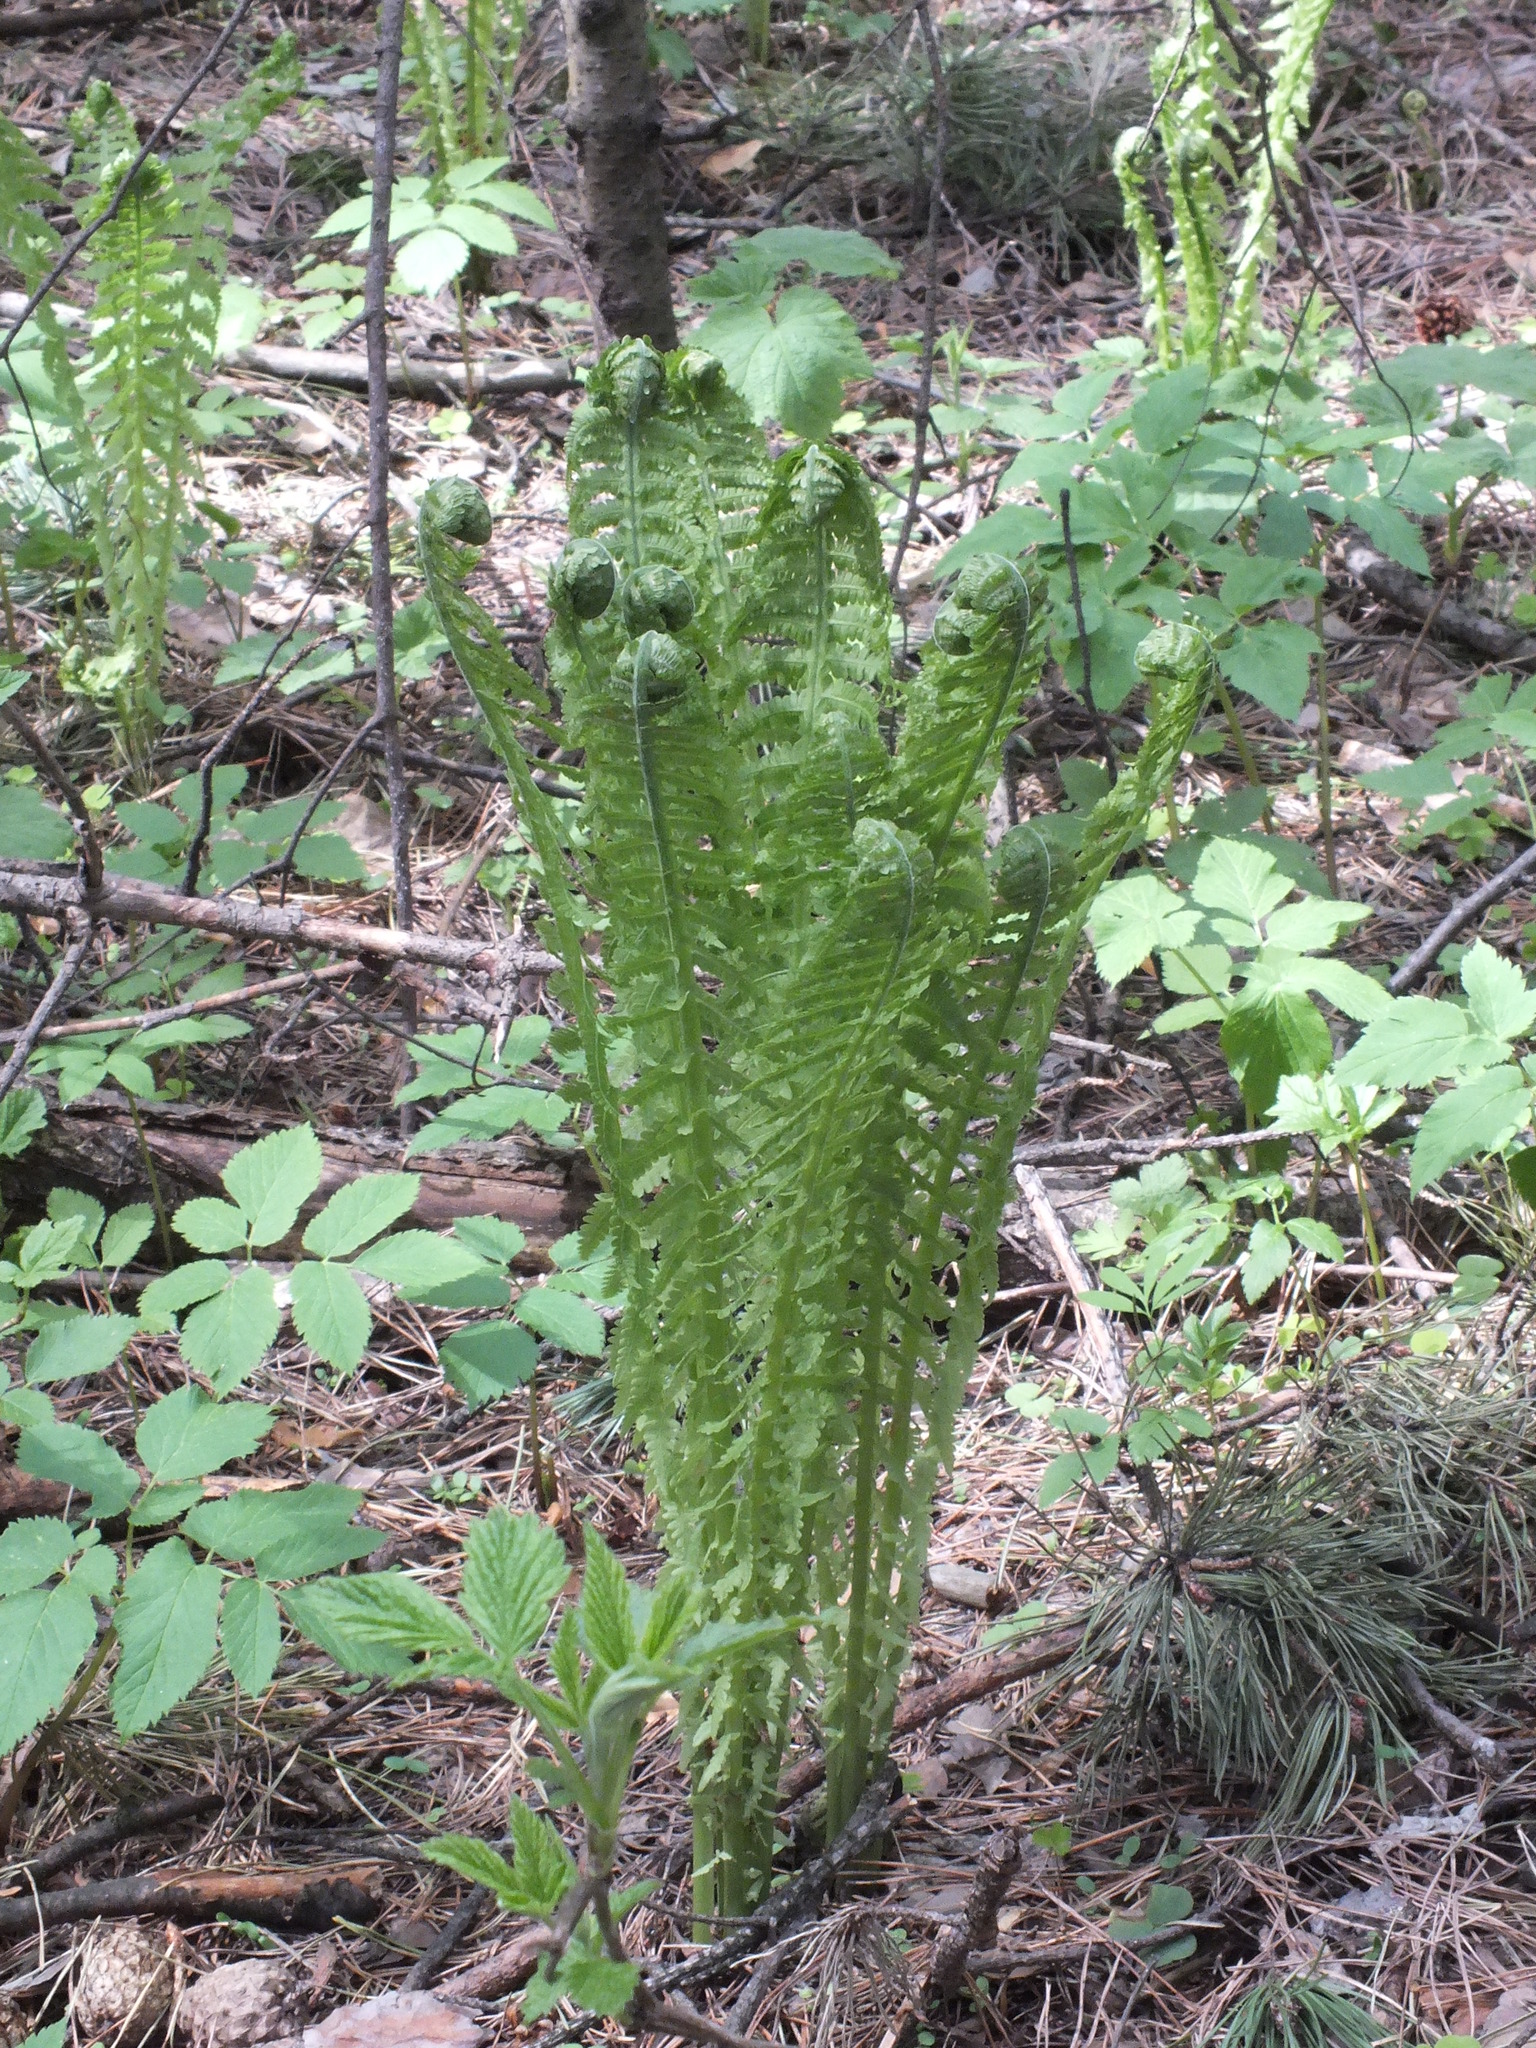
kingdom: Plantae
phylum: Tracheophyta
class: Polypodiopsida
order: Polypodiales
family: Onocleaceae
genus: Matteuccia
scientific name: Matteuccia struthiopteris
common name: Ostrich fern
